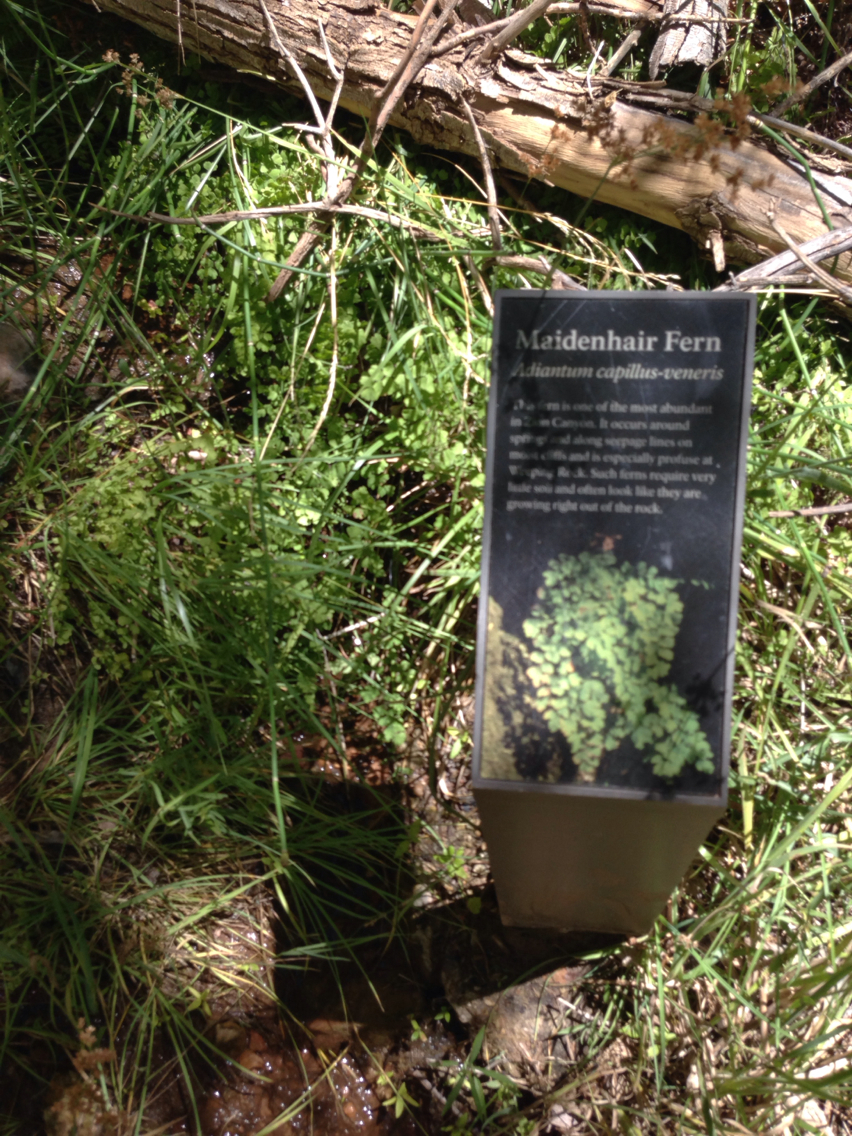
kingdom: Plantae
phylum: Tracheophyta
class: Polypodiopsida
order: Polypodiales
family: Pteridaceae
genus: Adiantum
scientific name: Adiantum capillus-veneris
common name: Maidenhair fern
